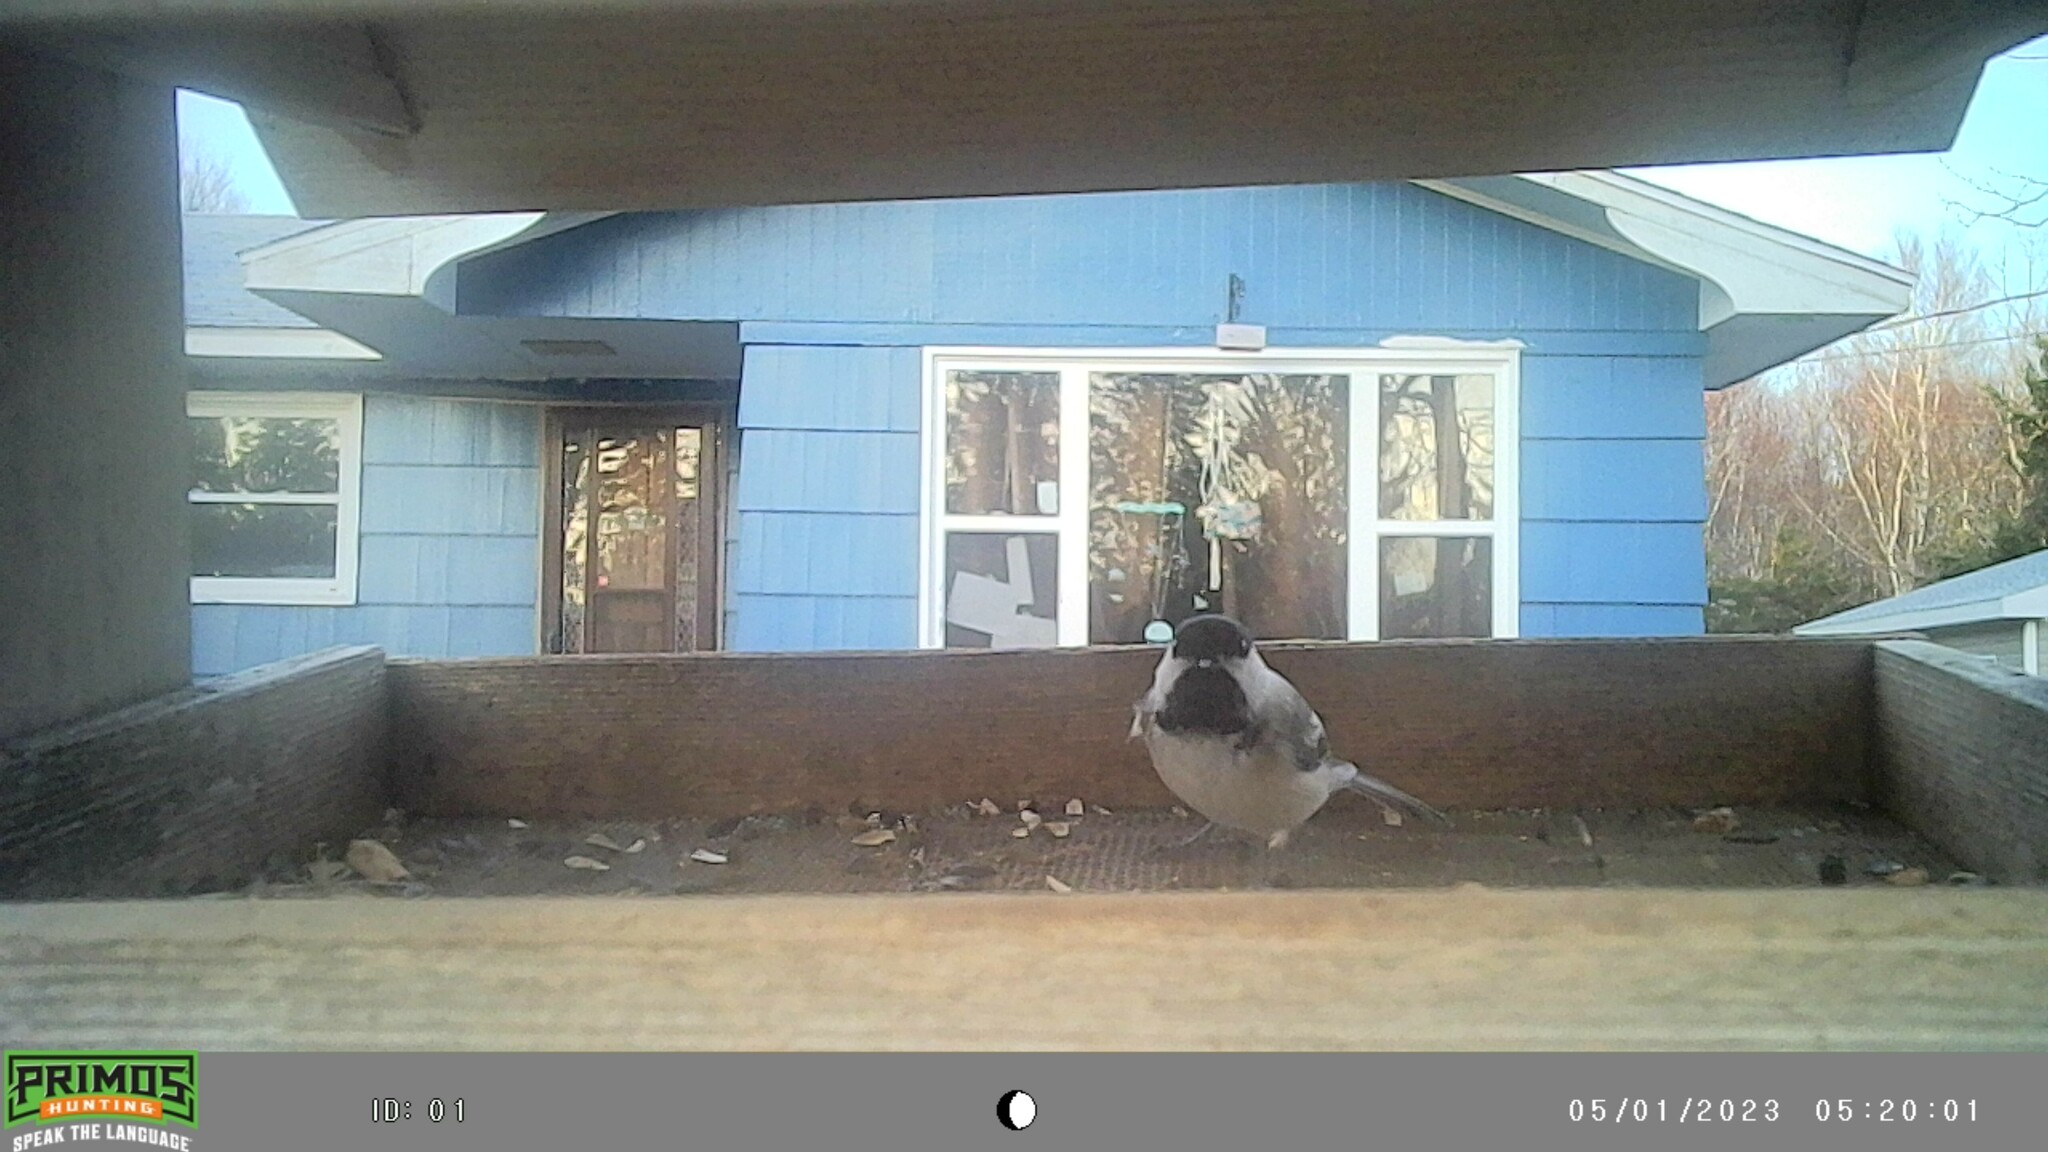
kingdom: Animalia
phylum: Chordata
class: Aves
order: Passeriformes
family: Paridae
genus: Poecile
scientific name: Poecile atricapillus
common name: Black-capped chickadee
